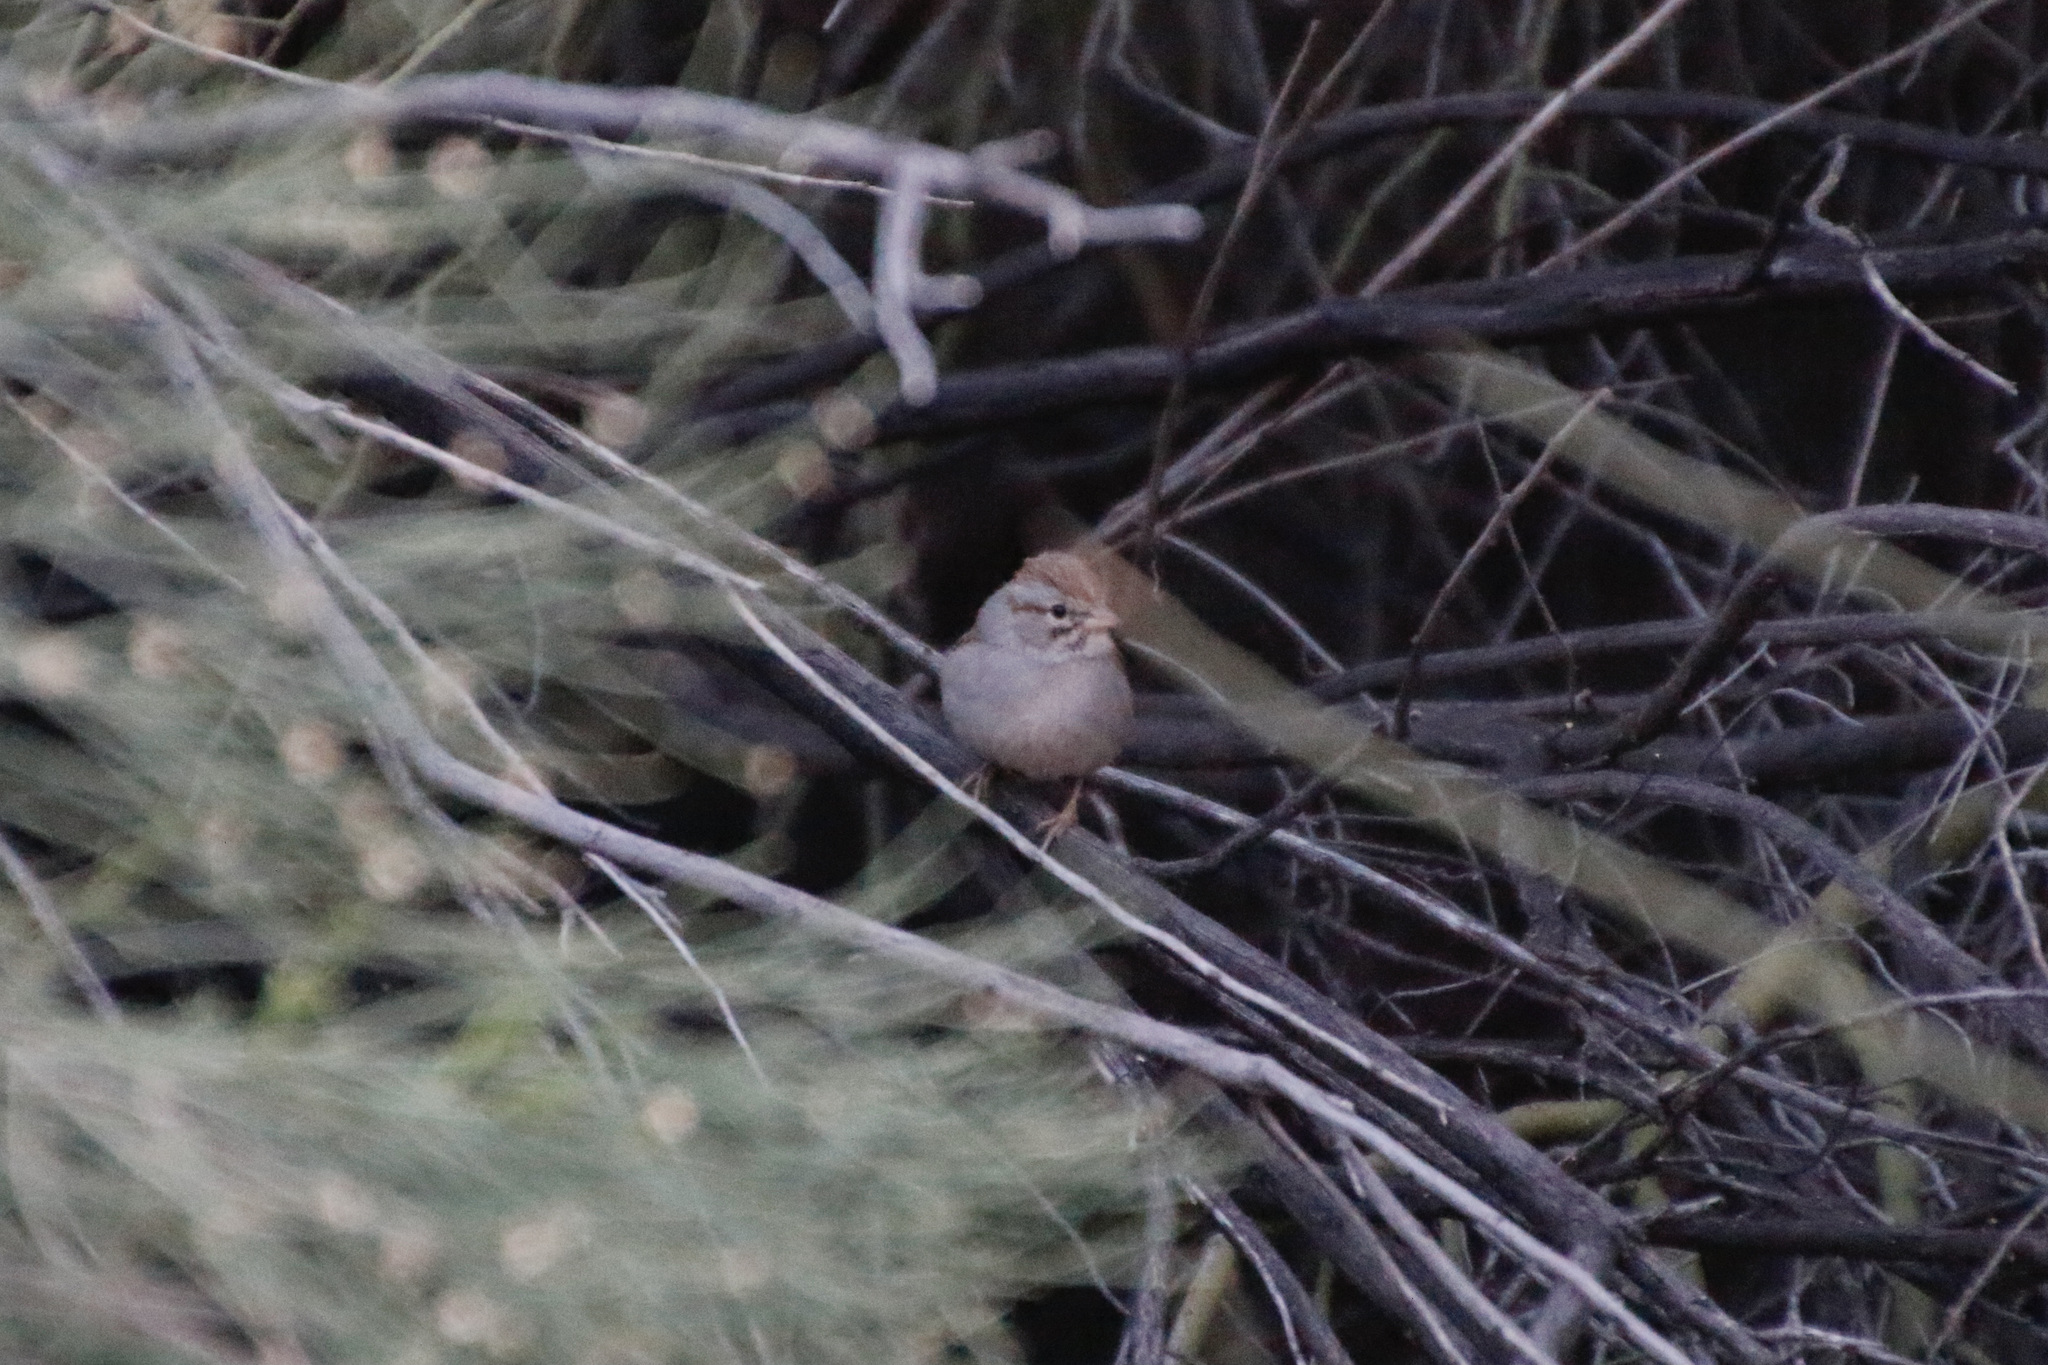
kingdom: Animalia
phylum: Chordata
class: Aves
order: Passeriformes
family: Passerellidae
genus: Peucaea
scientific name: Peucaea carpalis
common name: Rufous-winged sparrow
